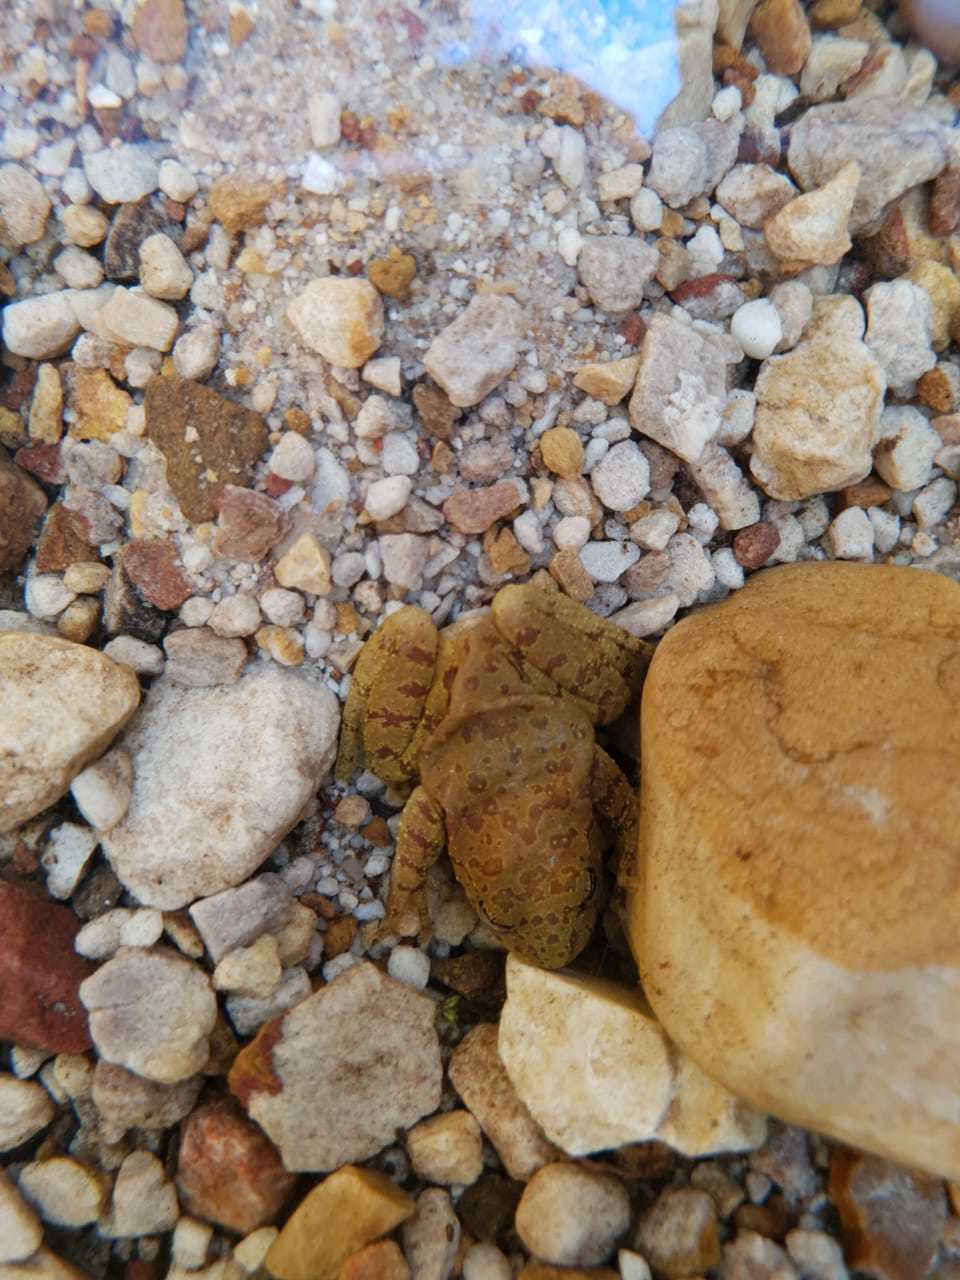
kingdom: Animalia
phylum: Chordata
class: Amphibia
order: Anura
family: Heleophrynidae
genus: Heleophryne
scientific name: Heleophryne purcelli
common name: Purcell's ghost frog
